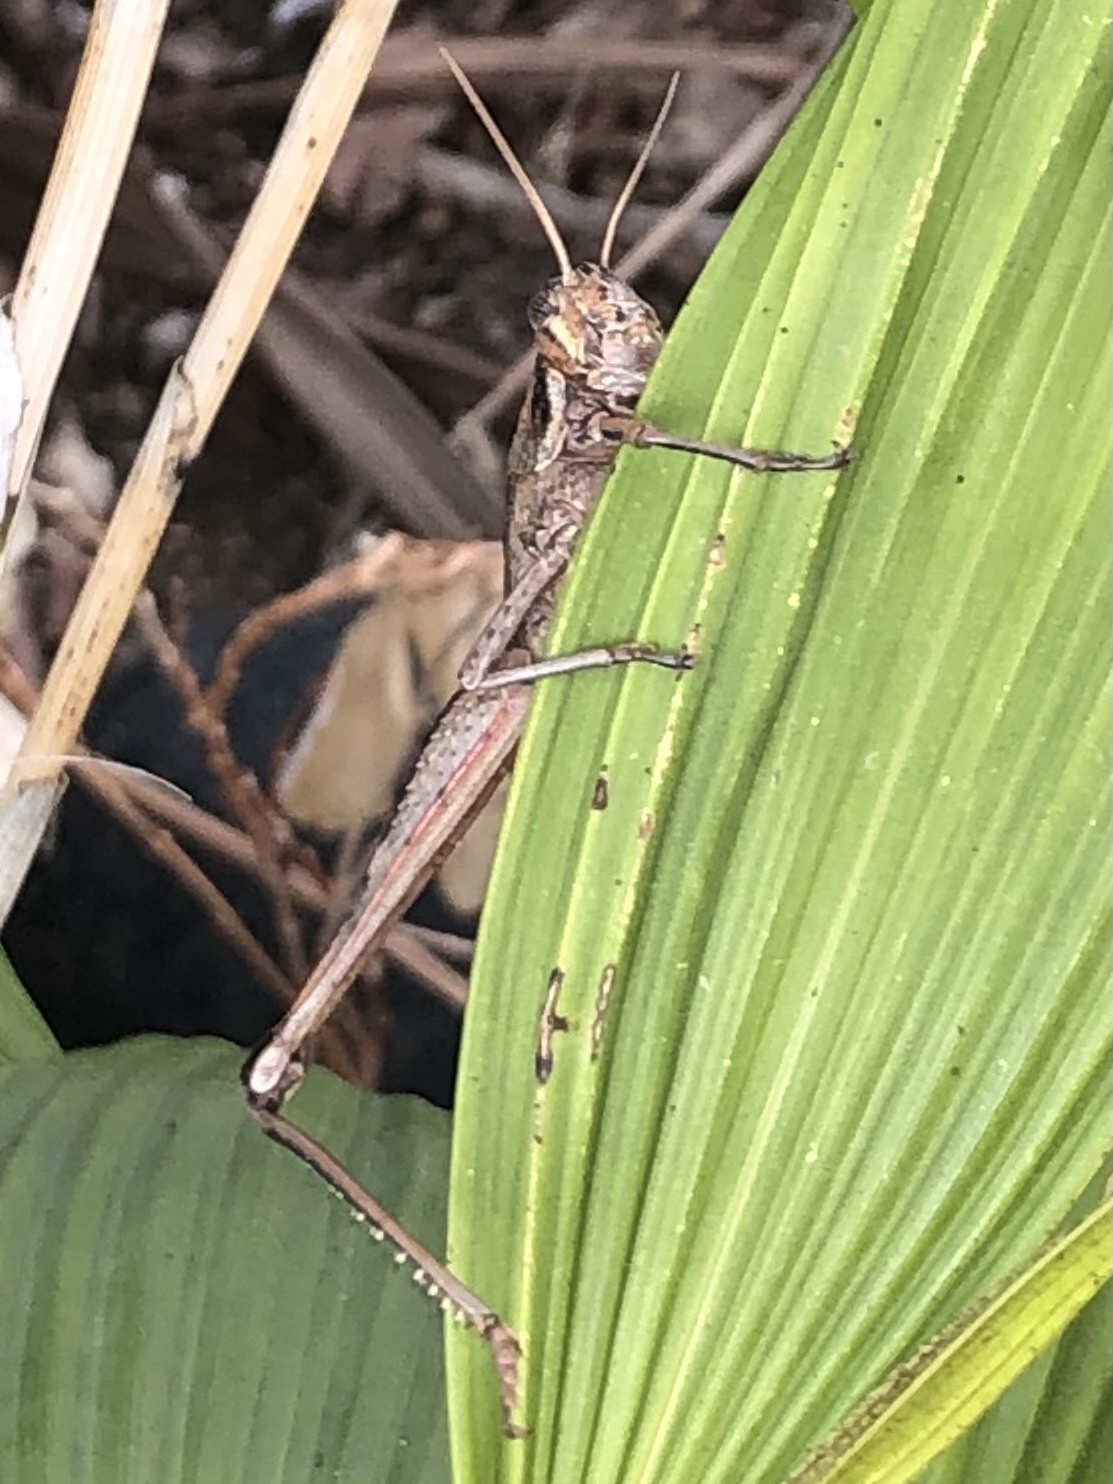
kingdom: Animalia
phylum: Arthropoda
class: Insecta
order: Orthoptera
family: Acrididae
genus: Schistocerca
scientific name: Schistocerca nitens
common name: Vagrant grasshopper
